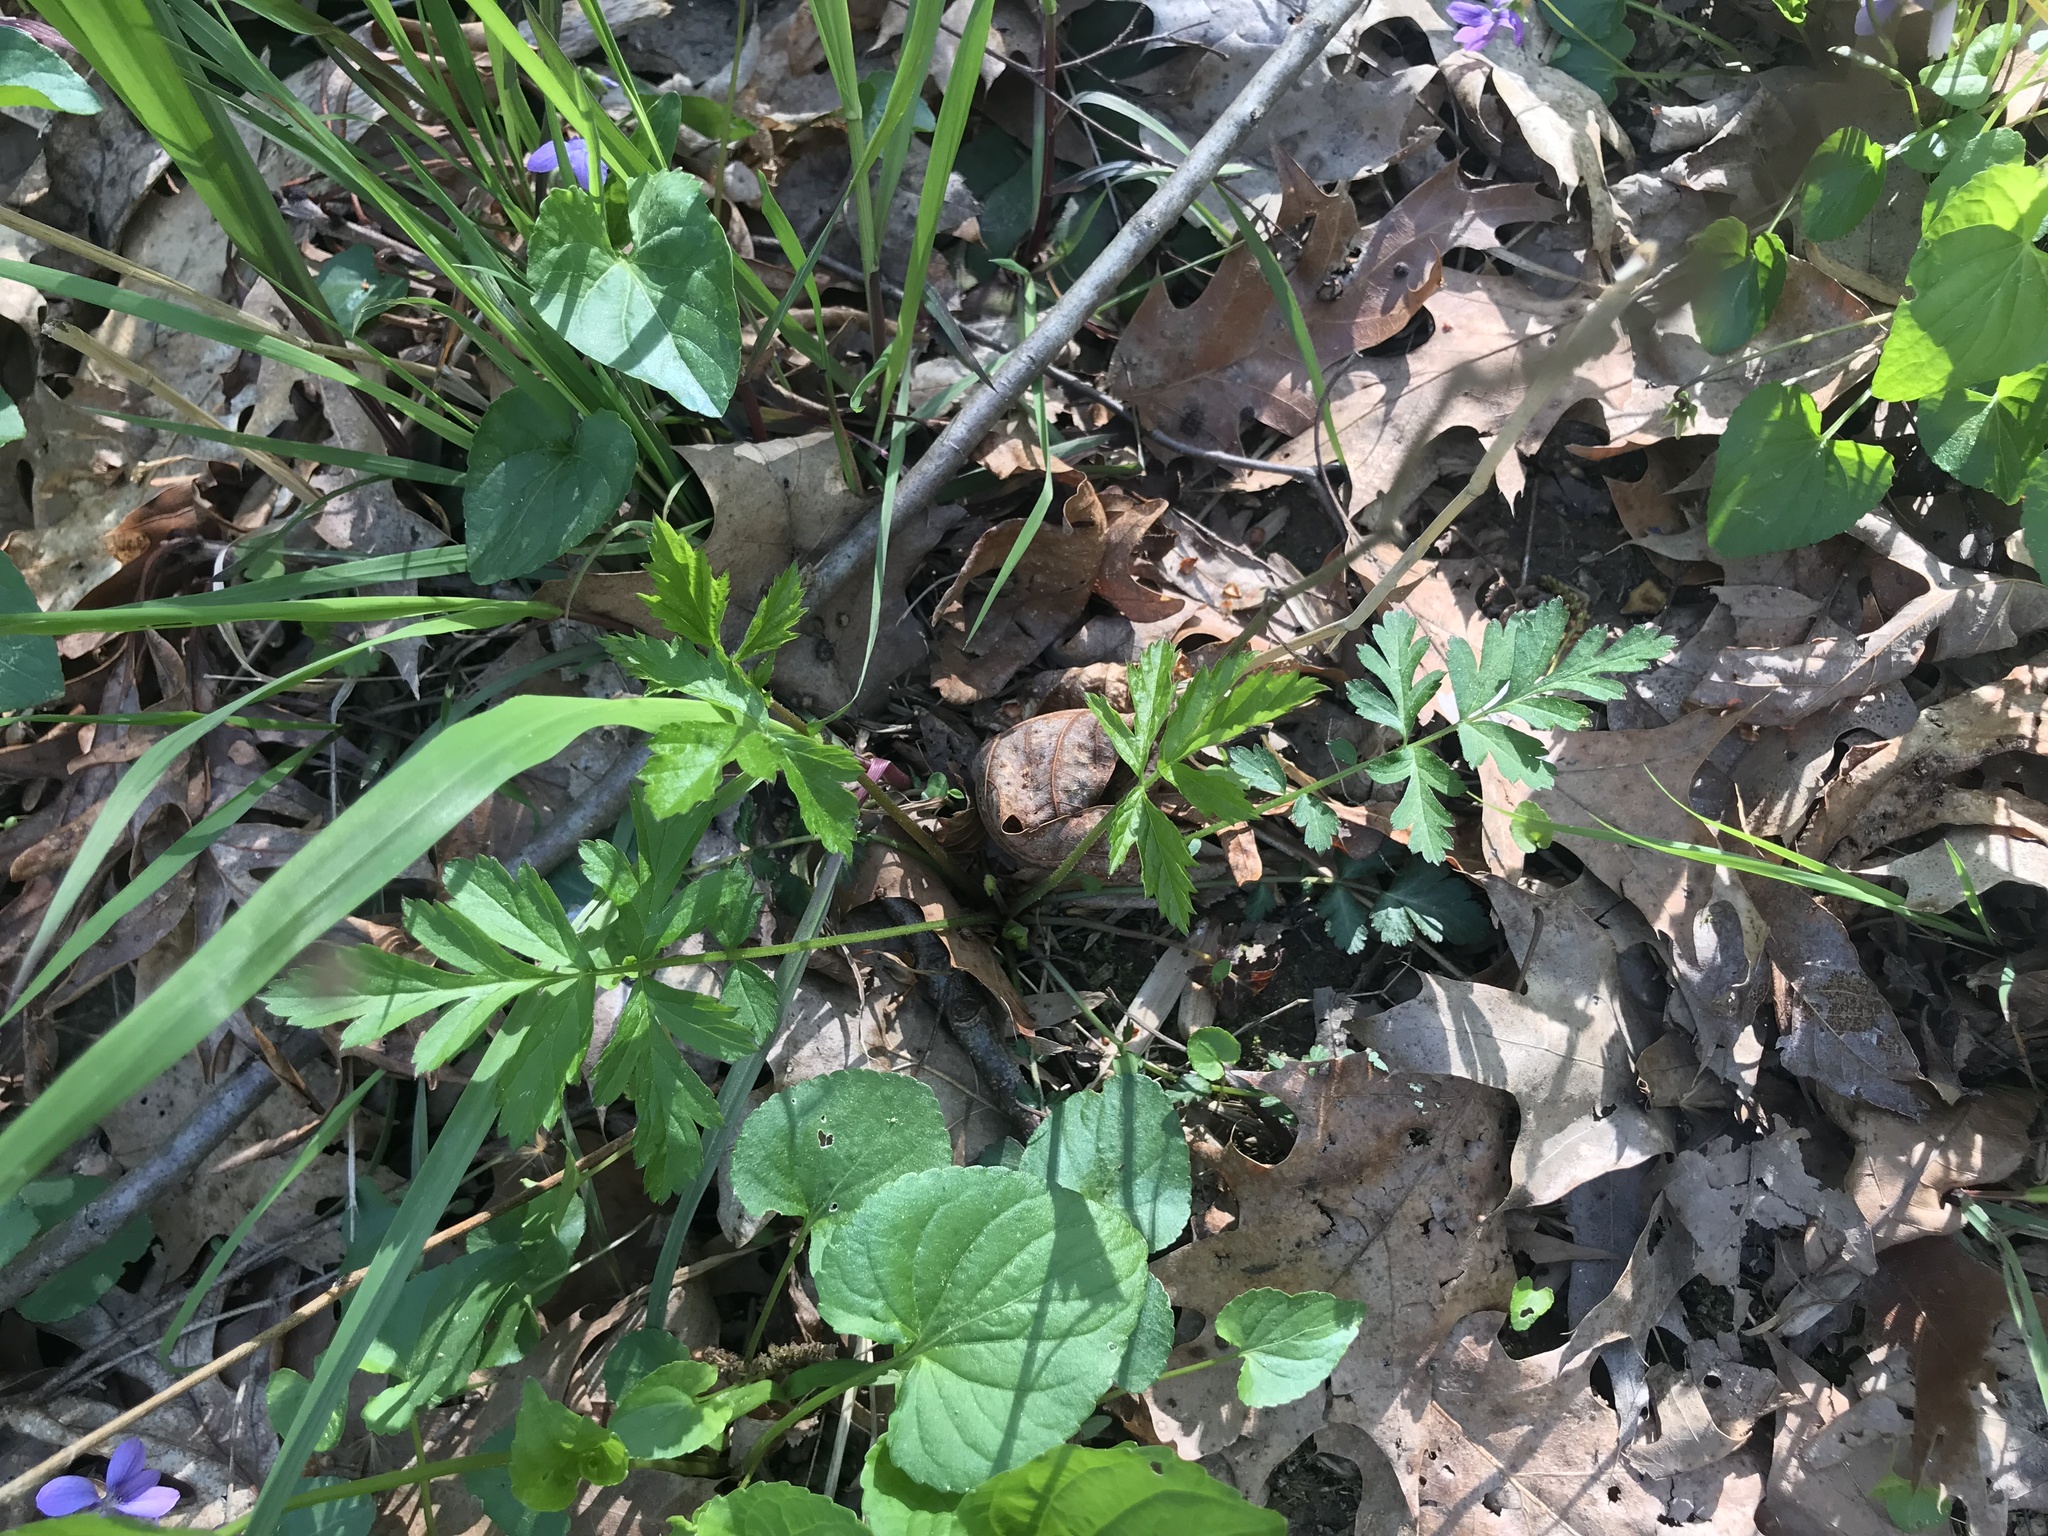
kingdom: Plantae
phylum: Tracheophyta
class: Magnoliopsida
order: Malpighiales
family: Violaceae
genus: Viola
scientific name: Viola sororia
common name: Dooryard violet
